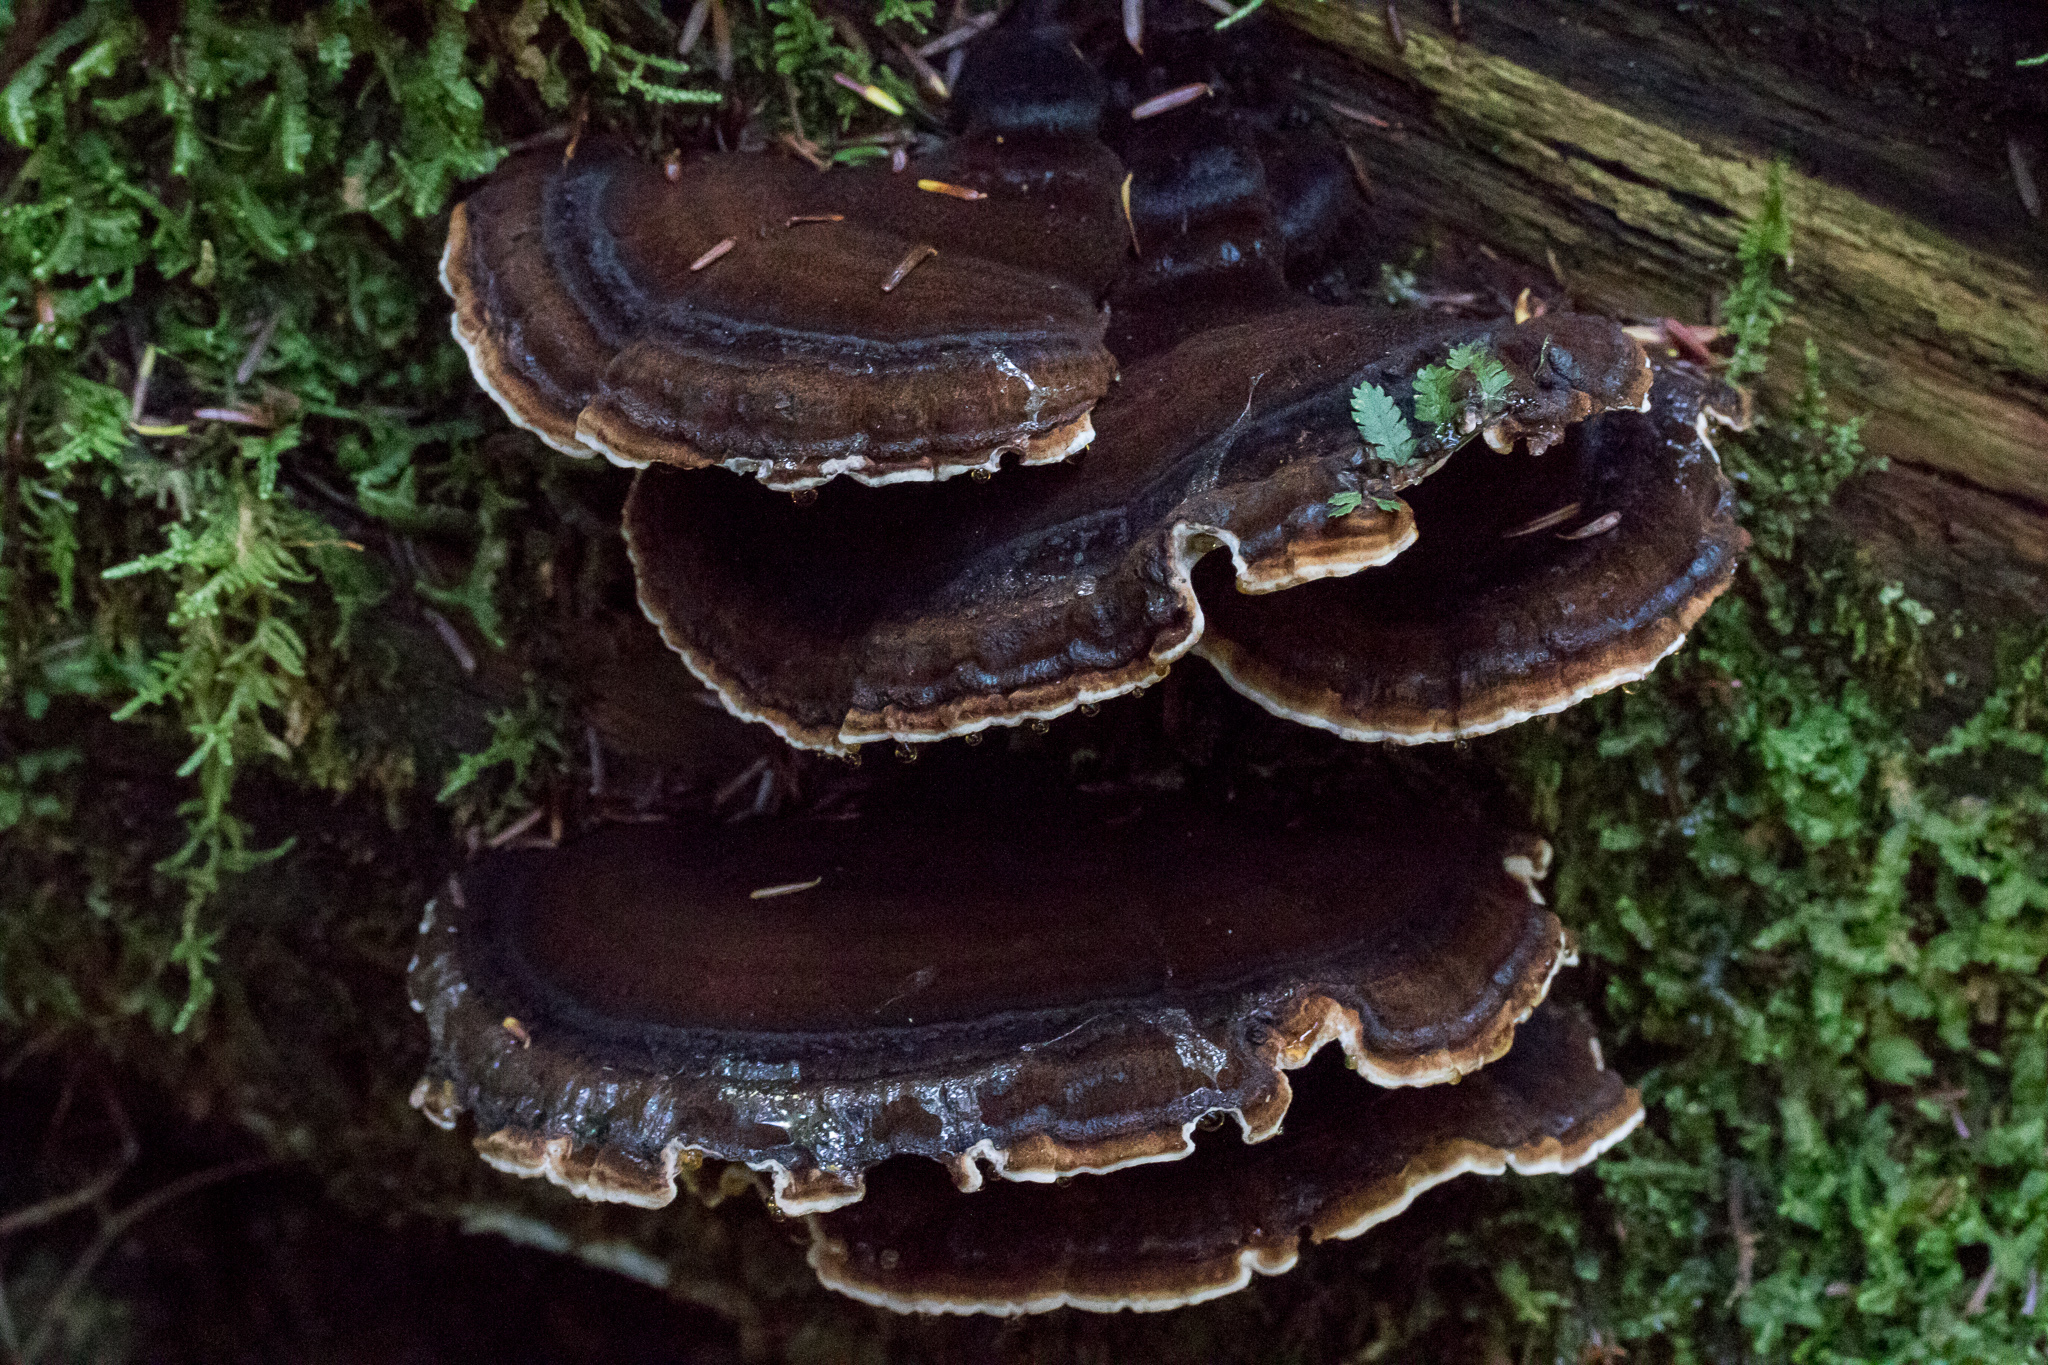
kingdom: Fungi
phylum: Basidiomycota
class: Agaricomycetes
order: Polyporales
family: Ischnodermataceae
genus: Ischnoderma
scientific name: Ischnoderma benzoinum
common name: Benzoin bracket
